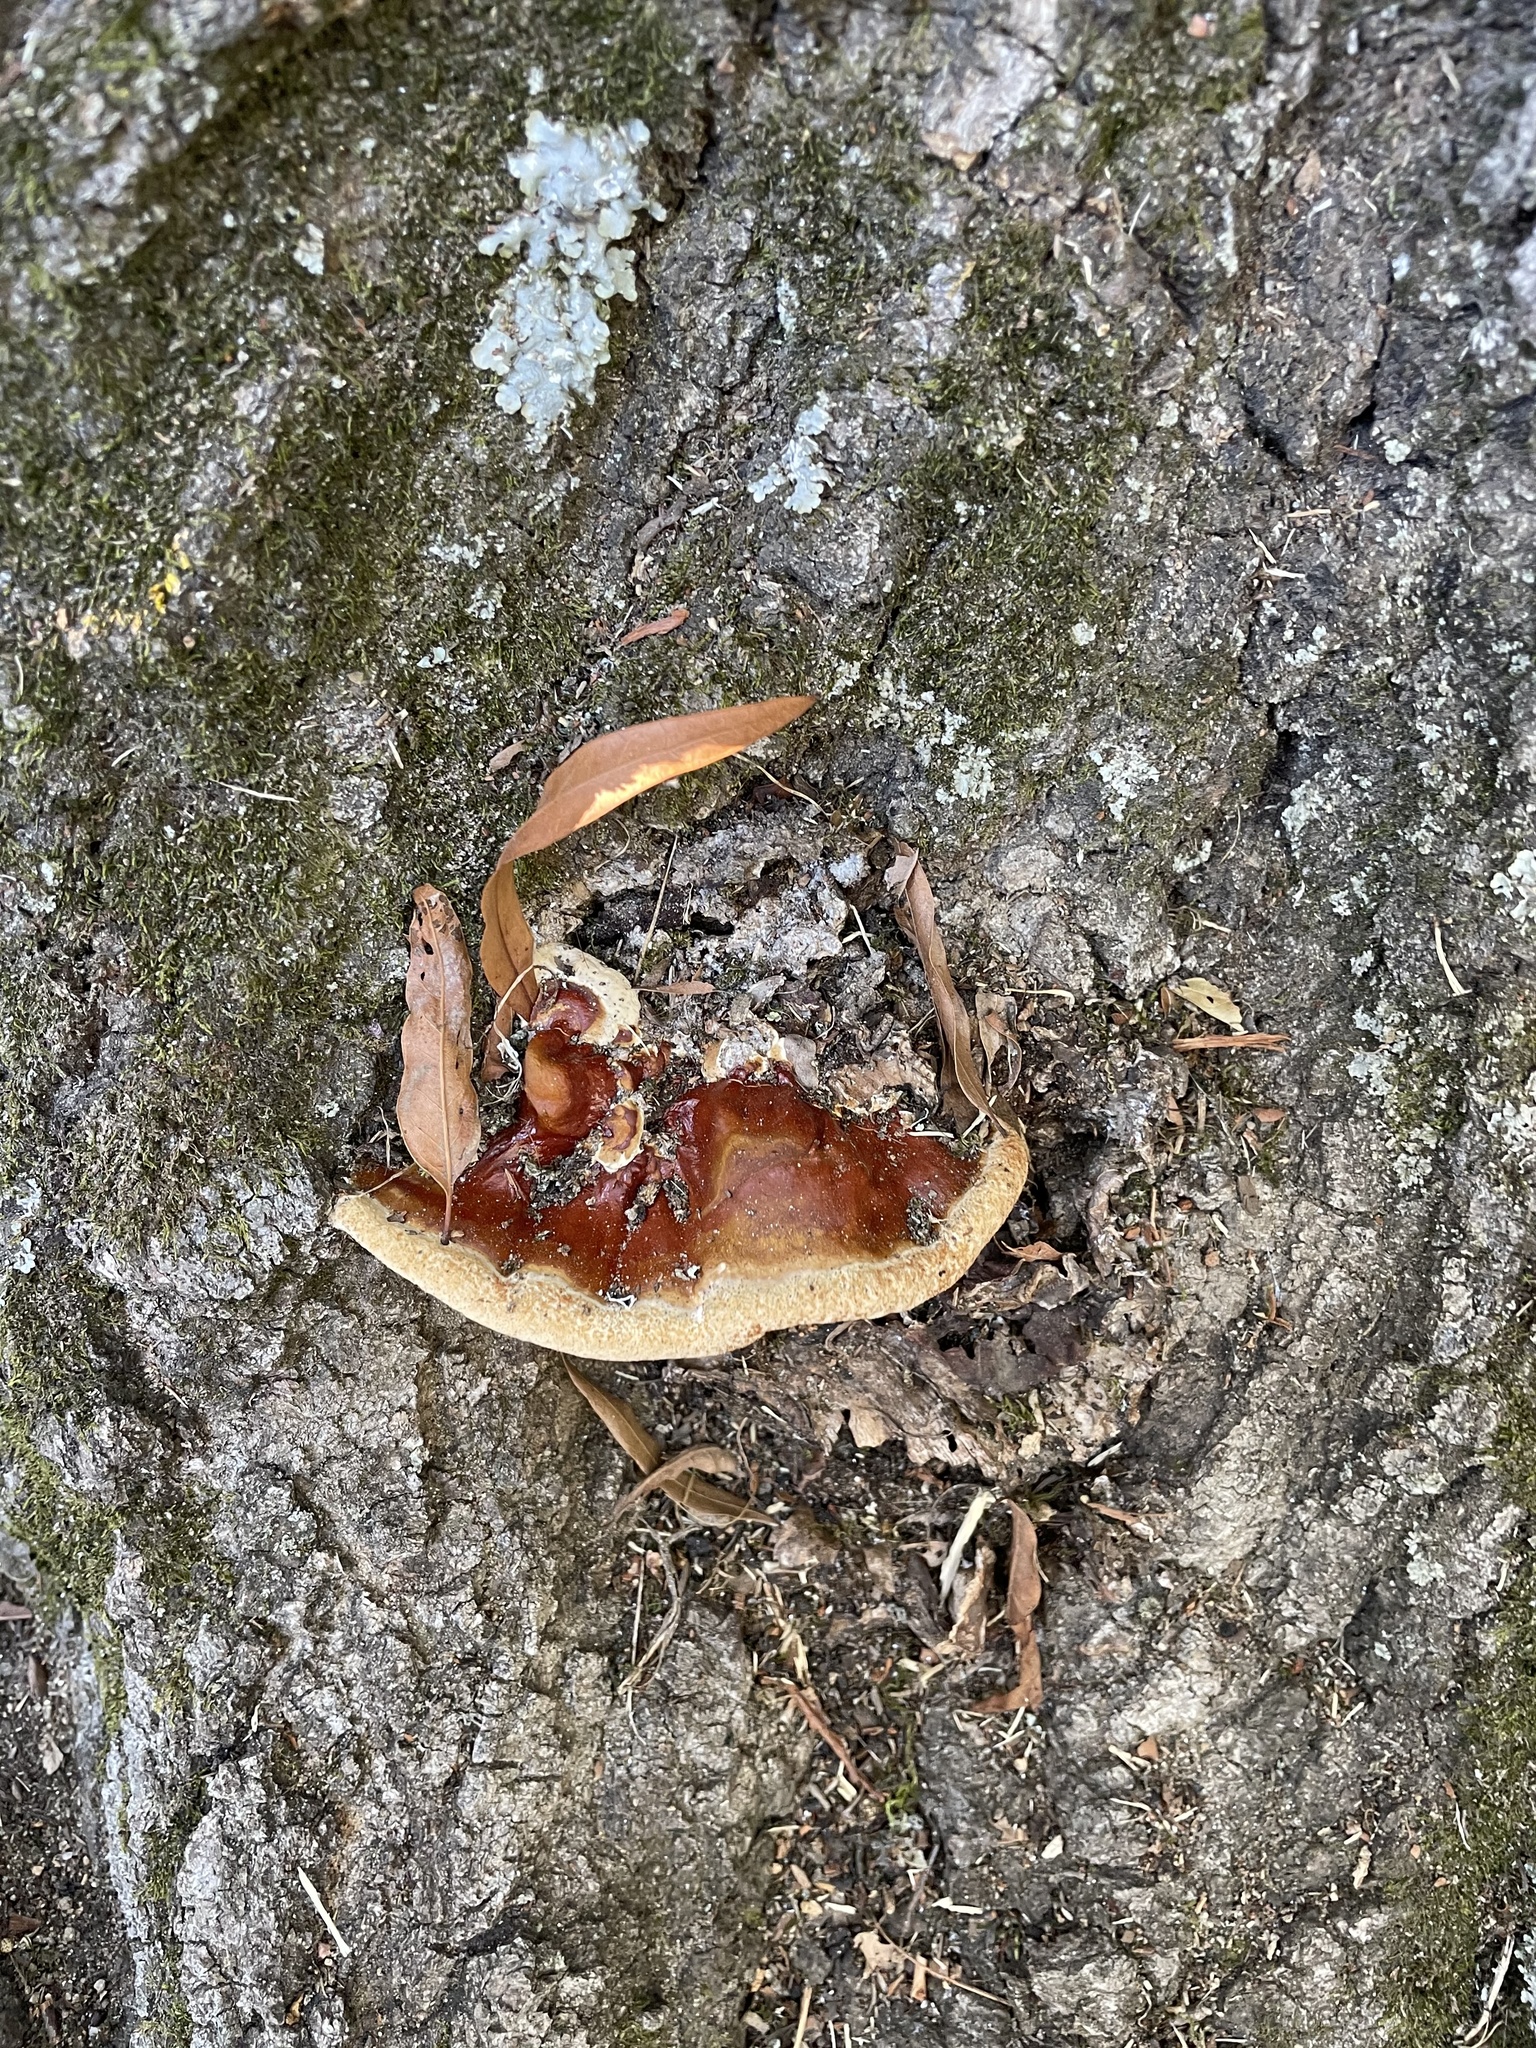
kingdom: Fungi
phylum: Basidiomycota
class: Agaricomycetes
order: Polyporales
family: Polyporaceae
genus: Ganoderma
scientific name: Ganoderma resinaceum
